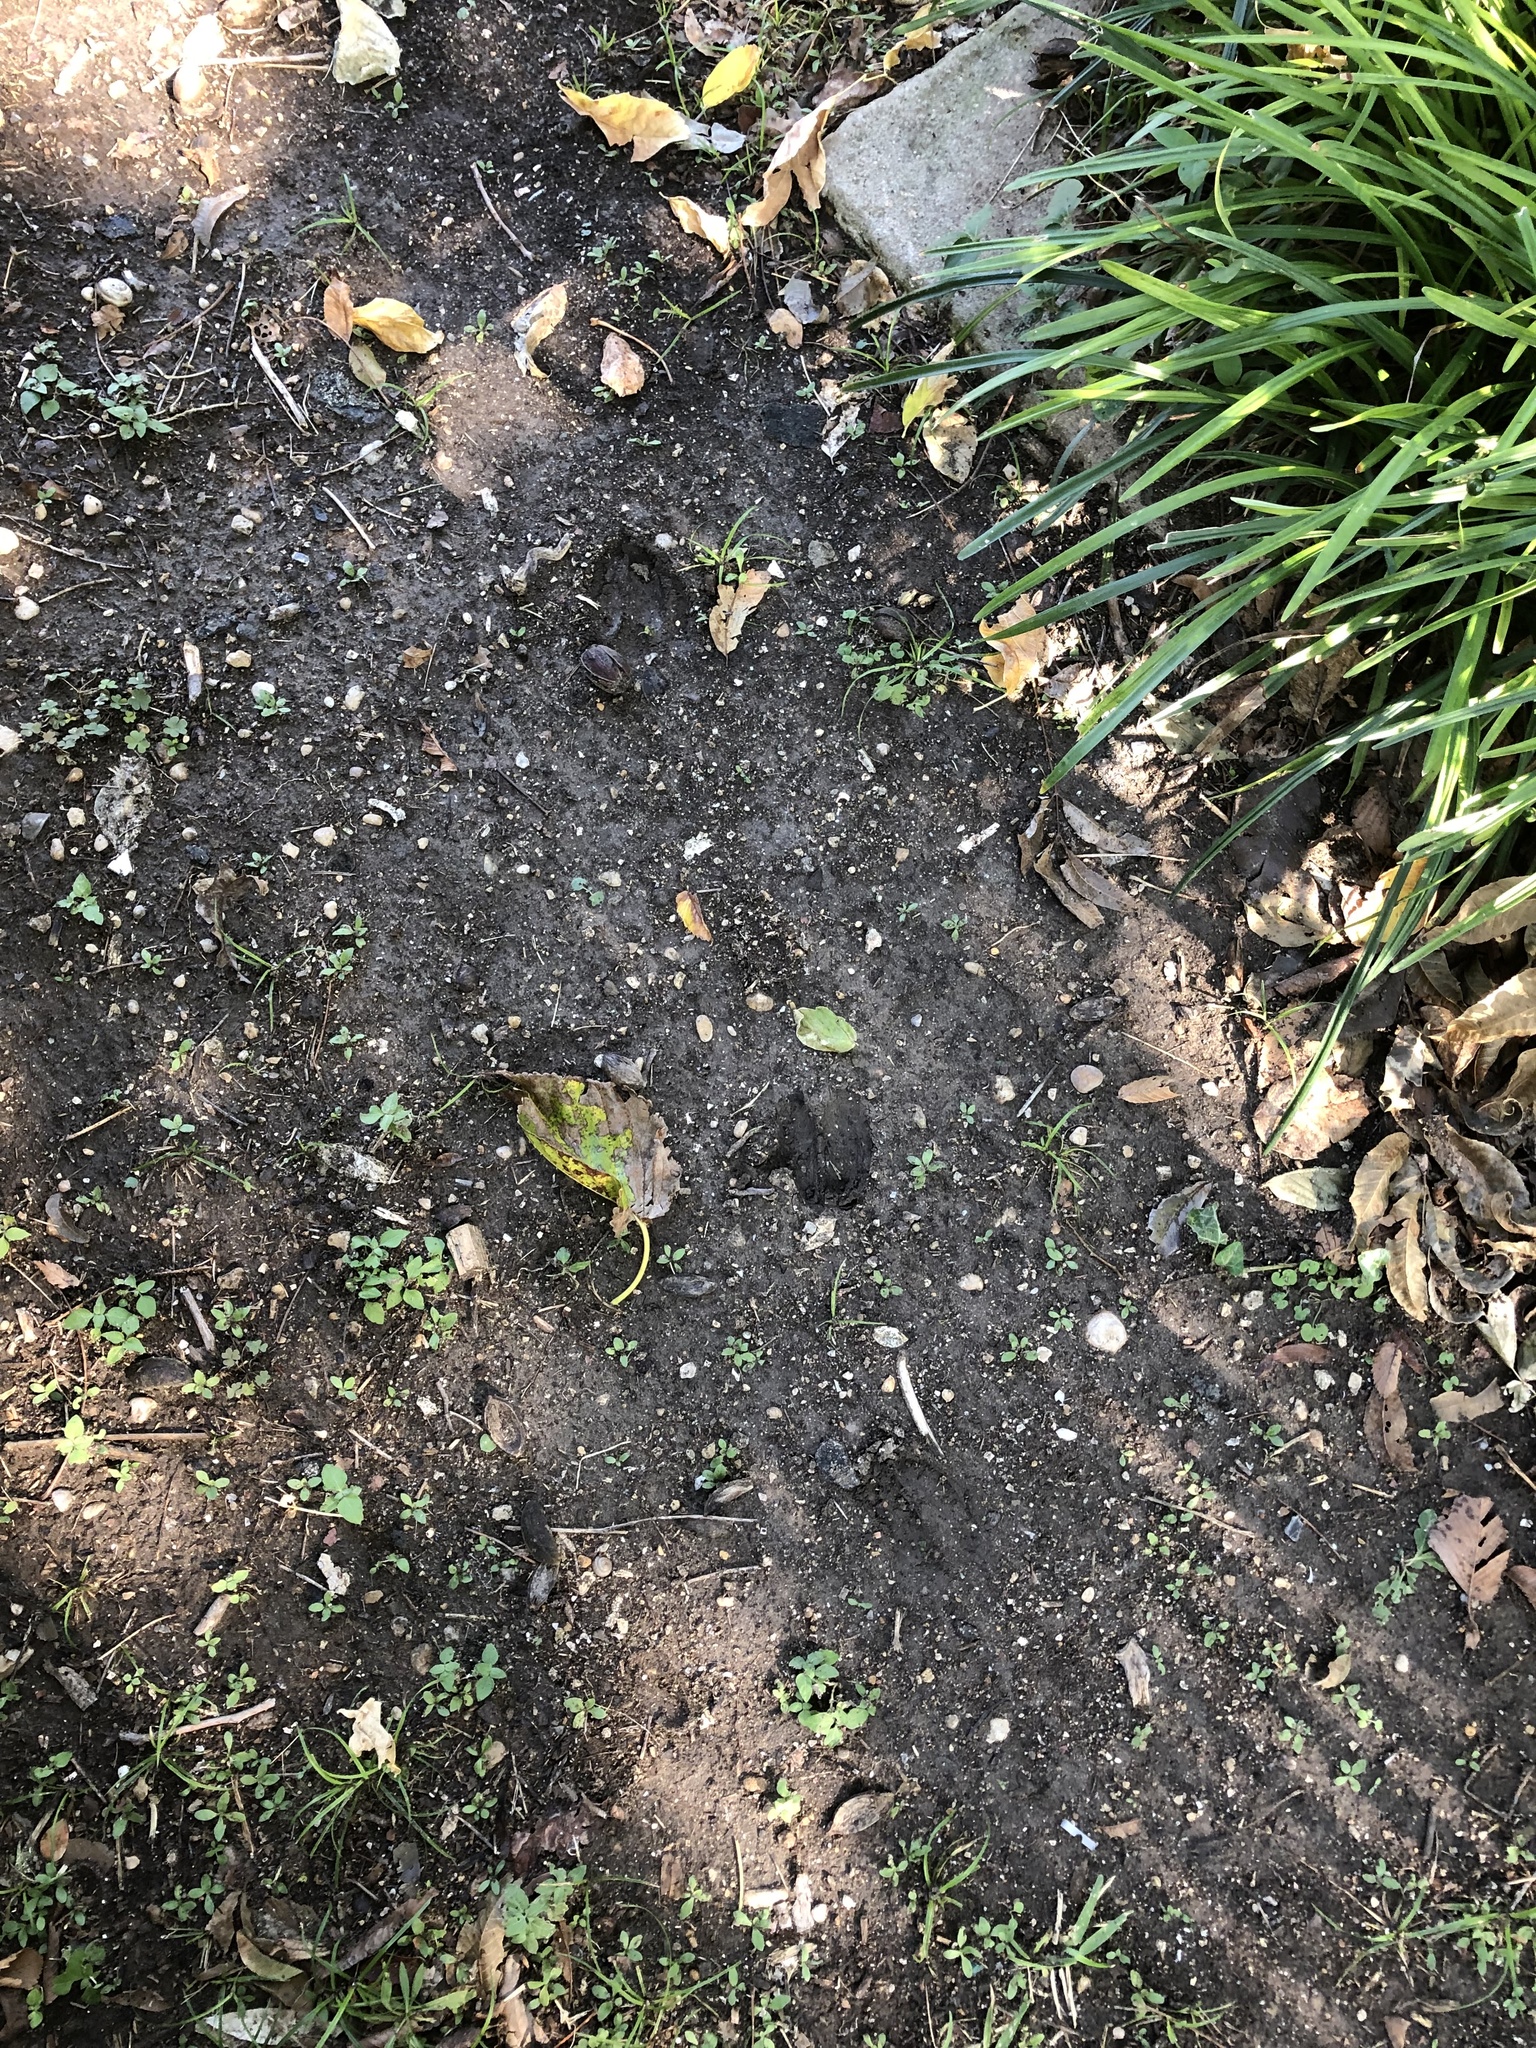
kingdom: Animalia
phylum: Chordata
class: Mammalia
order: Artiodactyla
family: Cervidae
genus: Odocoileus
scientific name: Odocoileus virginianus
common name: White-tailed deer
